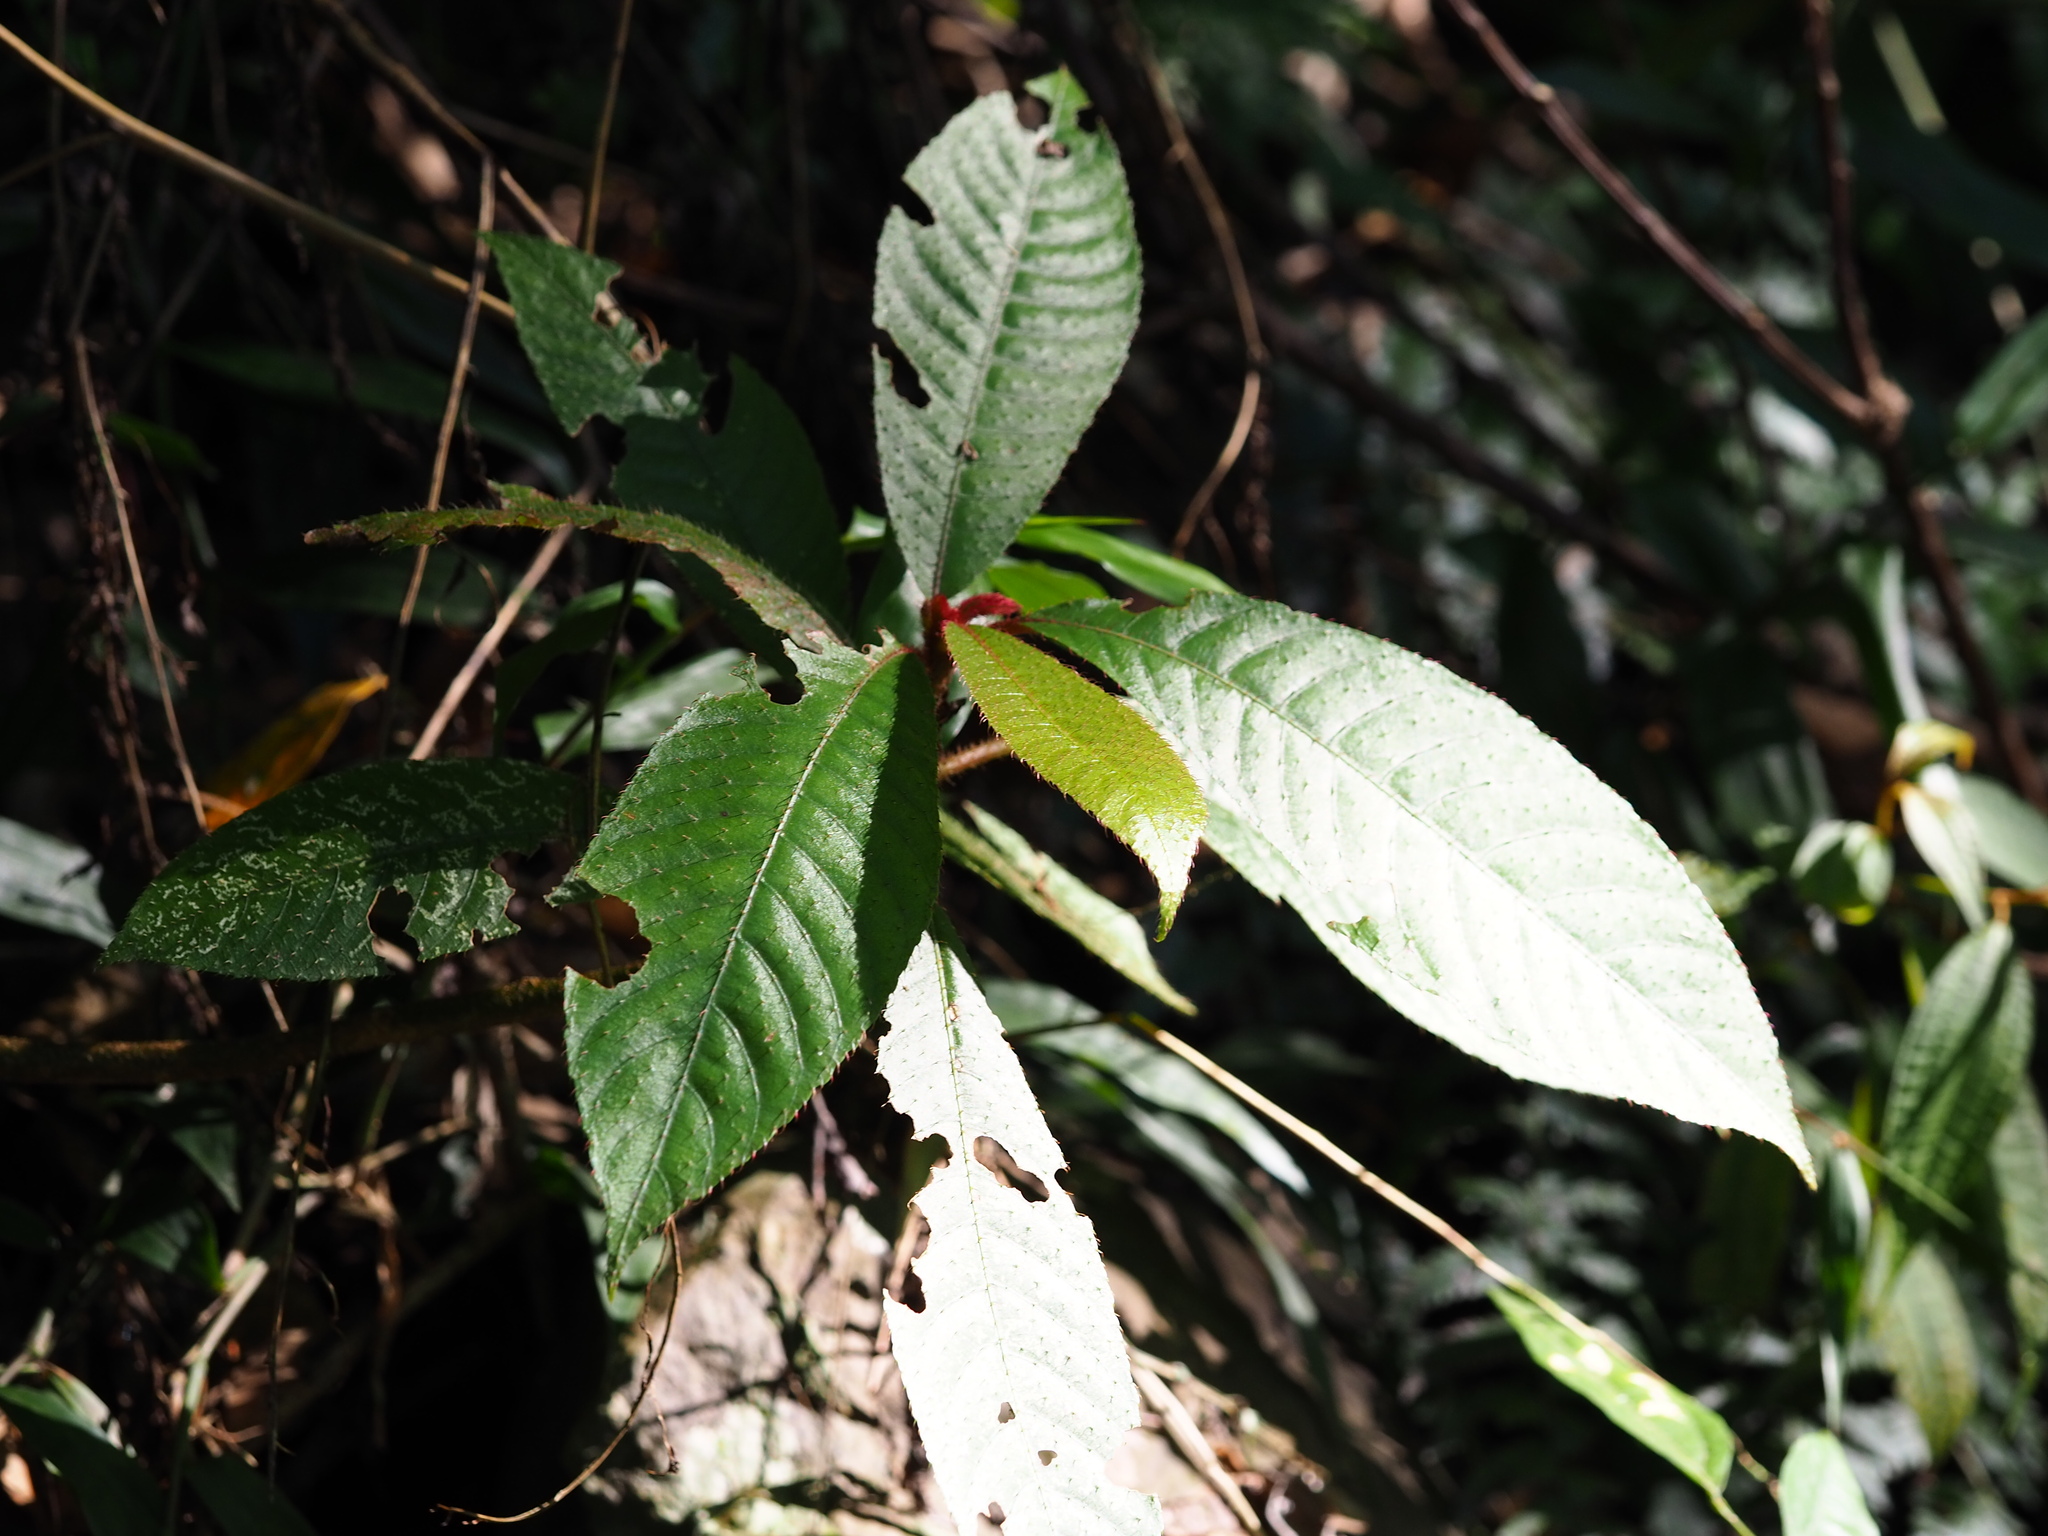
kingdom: Plantae
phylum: Tracheophyta
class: Magnoliopsida
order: Ericales
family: Actinidiaceae
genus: Saurauia
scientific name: Saurauia tristyla
